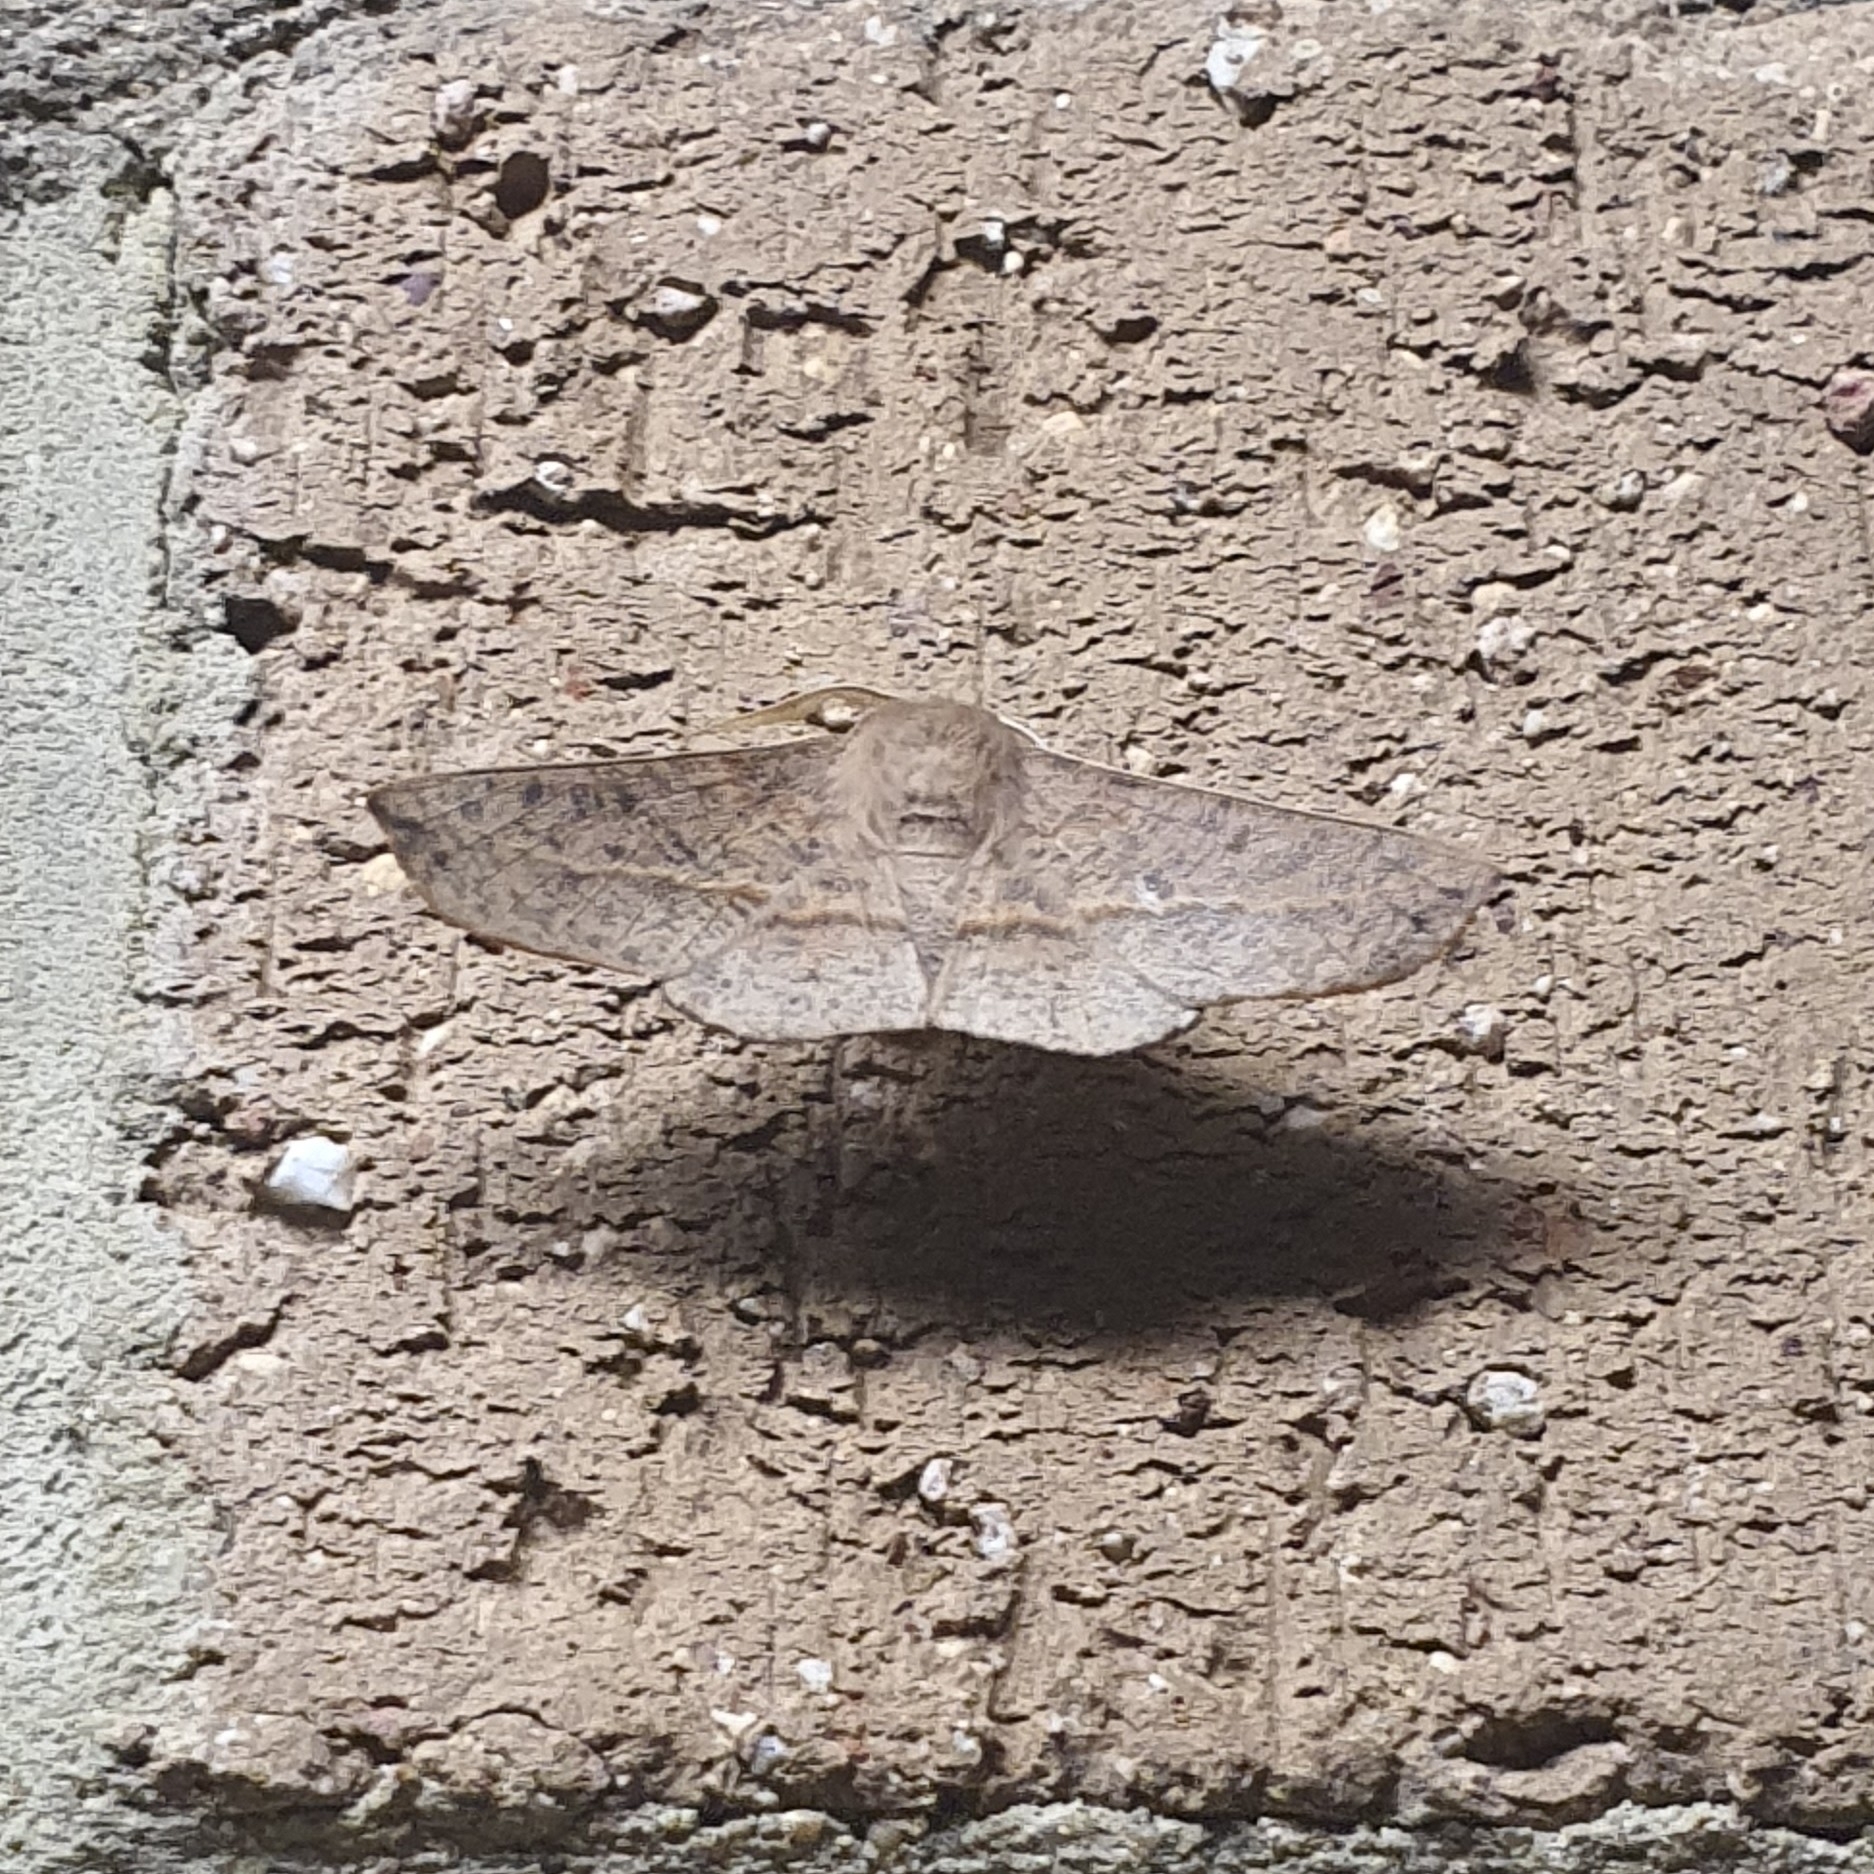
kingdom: Animalia
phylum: Arthropoda
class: Insecta
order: Lepidoptera
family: Geometridae
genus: Antictenia
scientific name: Antictenia punctunculus
